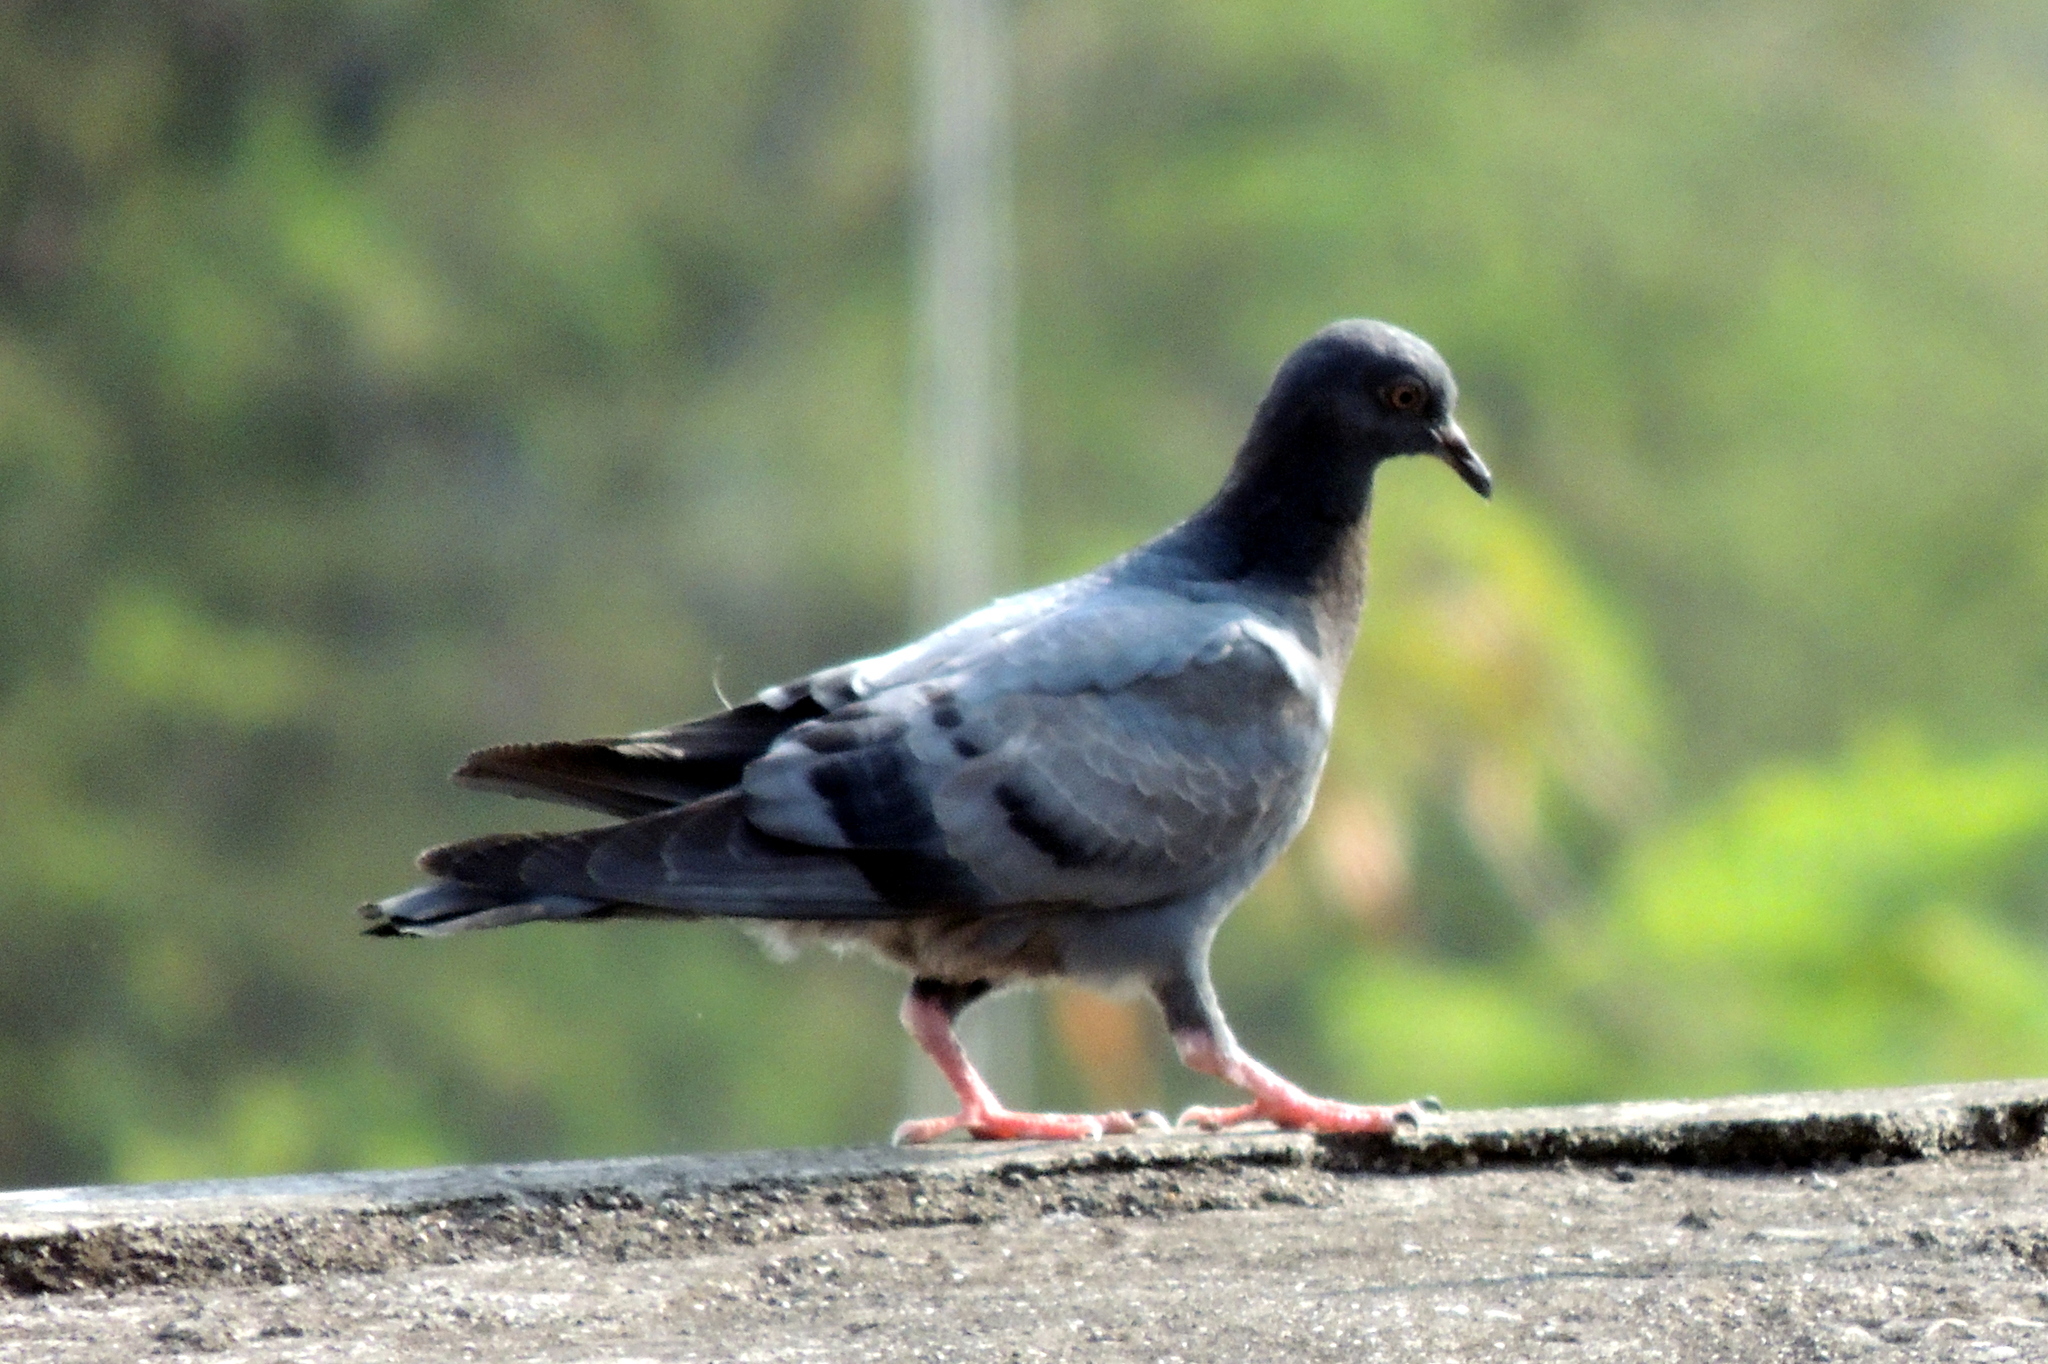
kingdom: Animalia
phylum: Chordata
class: Aves
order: Columbiformes
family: Columbidae
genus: Columba
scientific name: Columba livia
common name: Rock pigeon
